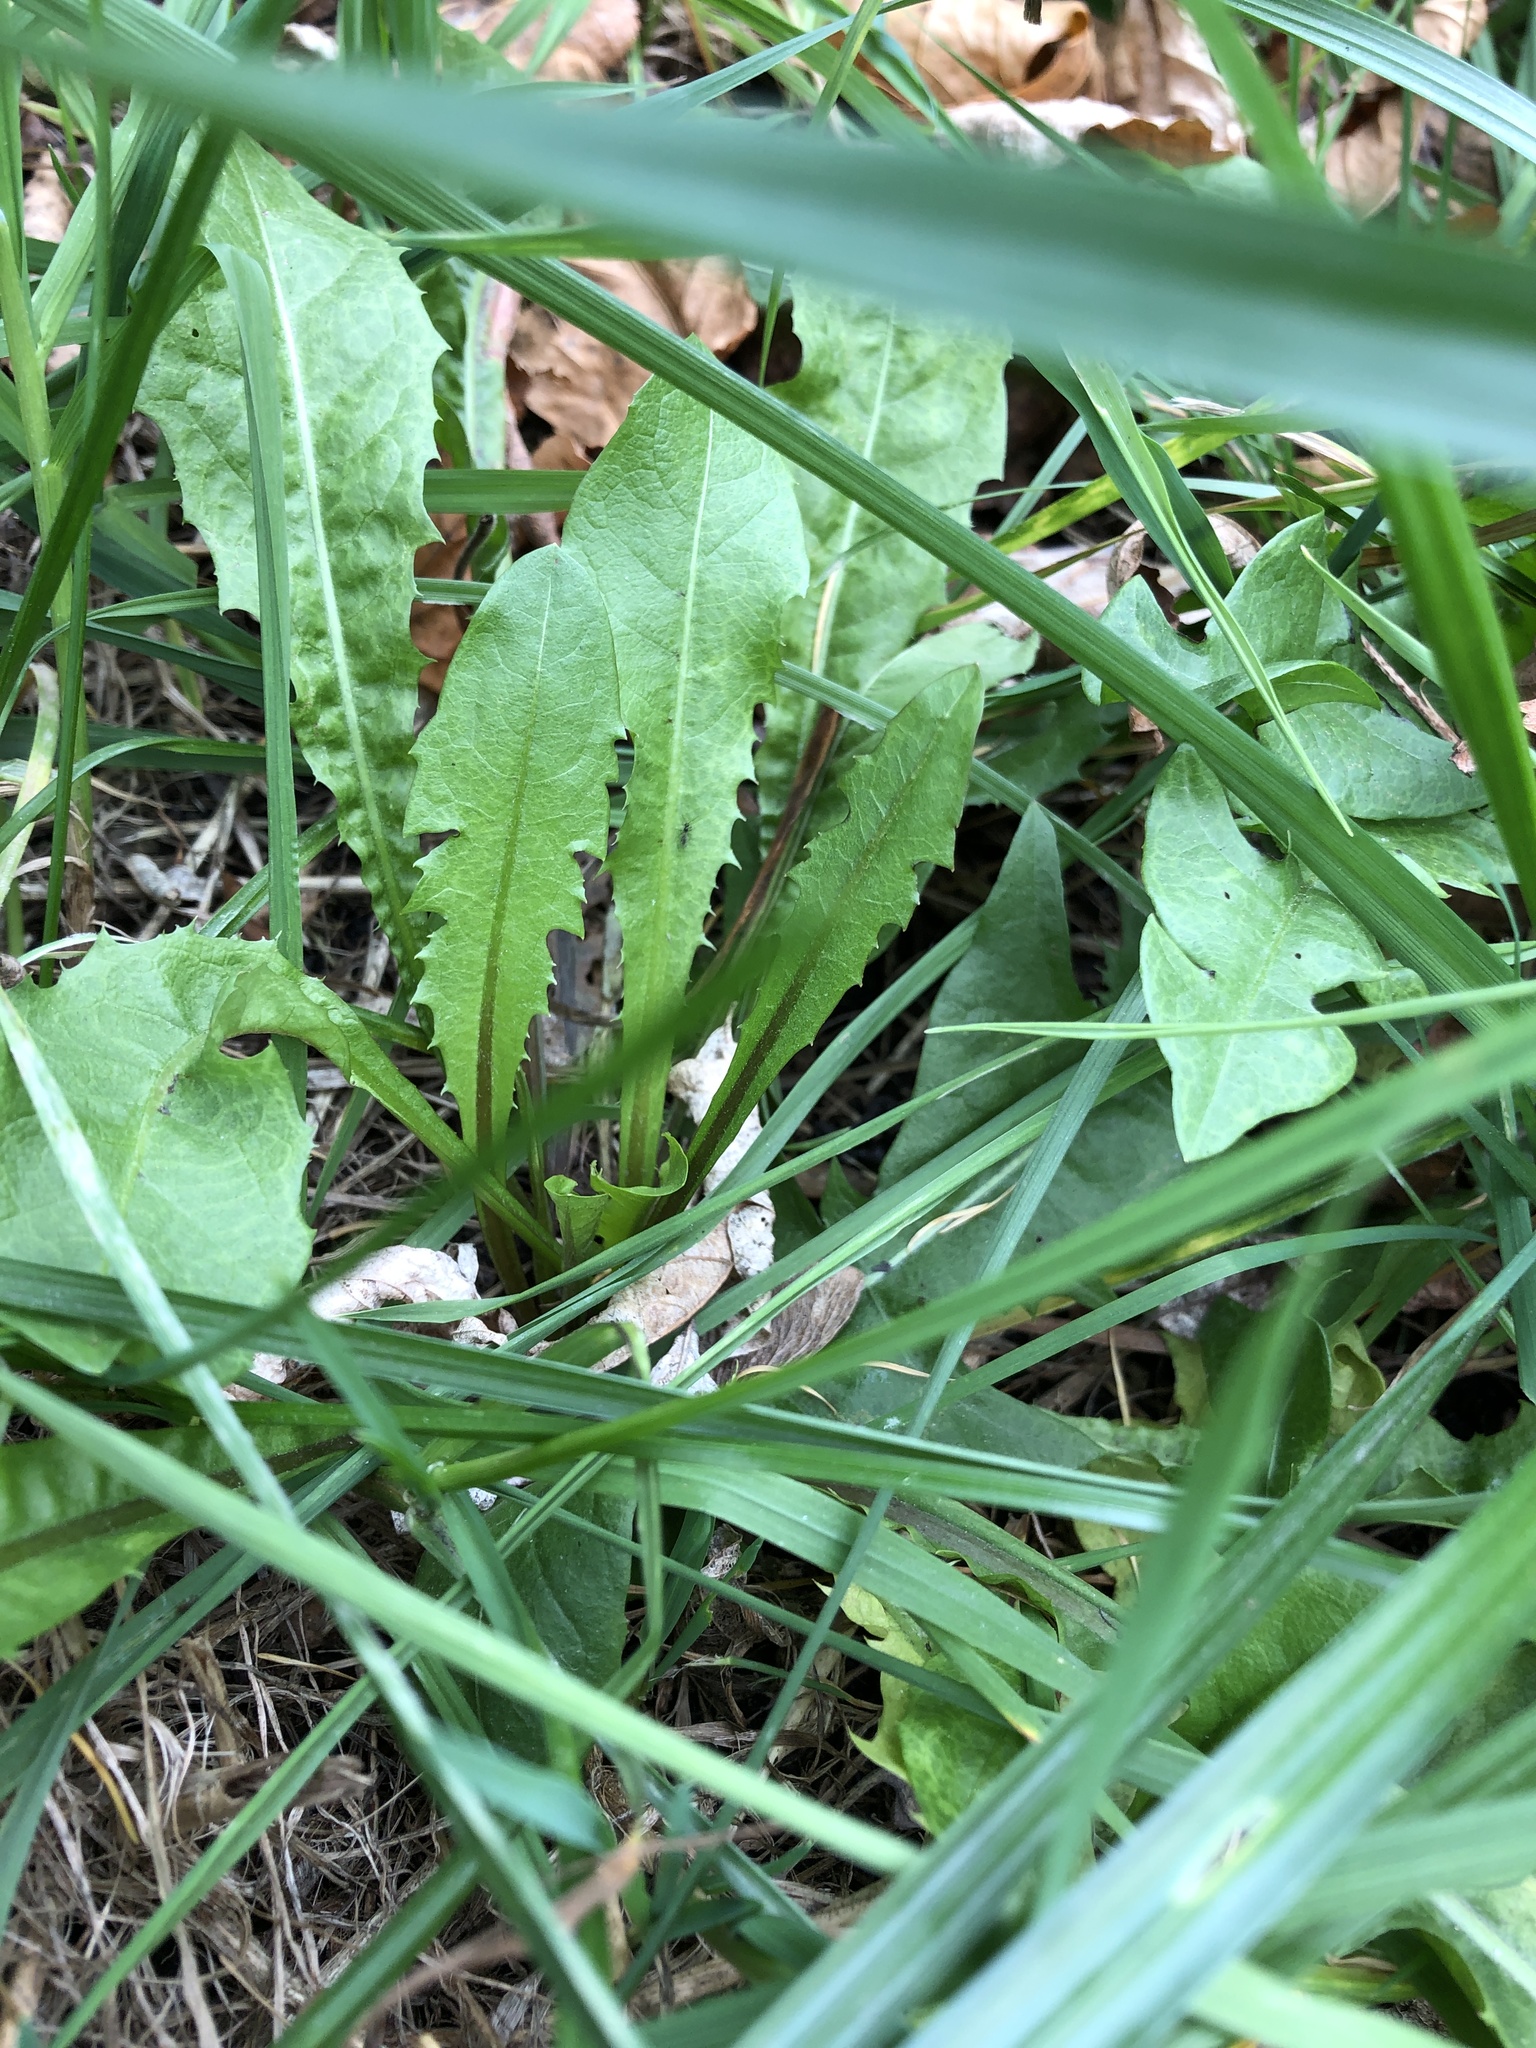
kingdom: Plantae
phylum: Tracheophyta
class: Magnoliopsida
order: Asterales
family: Asteraceae
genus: Taraxacum
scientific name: Taraxacum officinale
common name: Common dandelion
